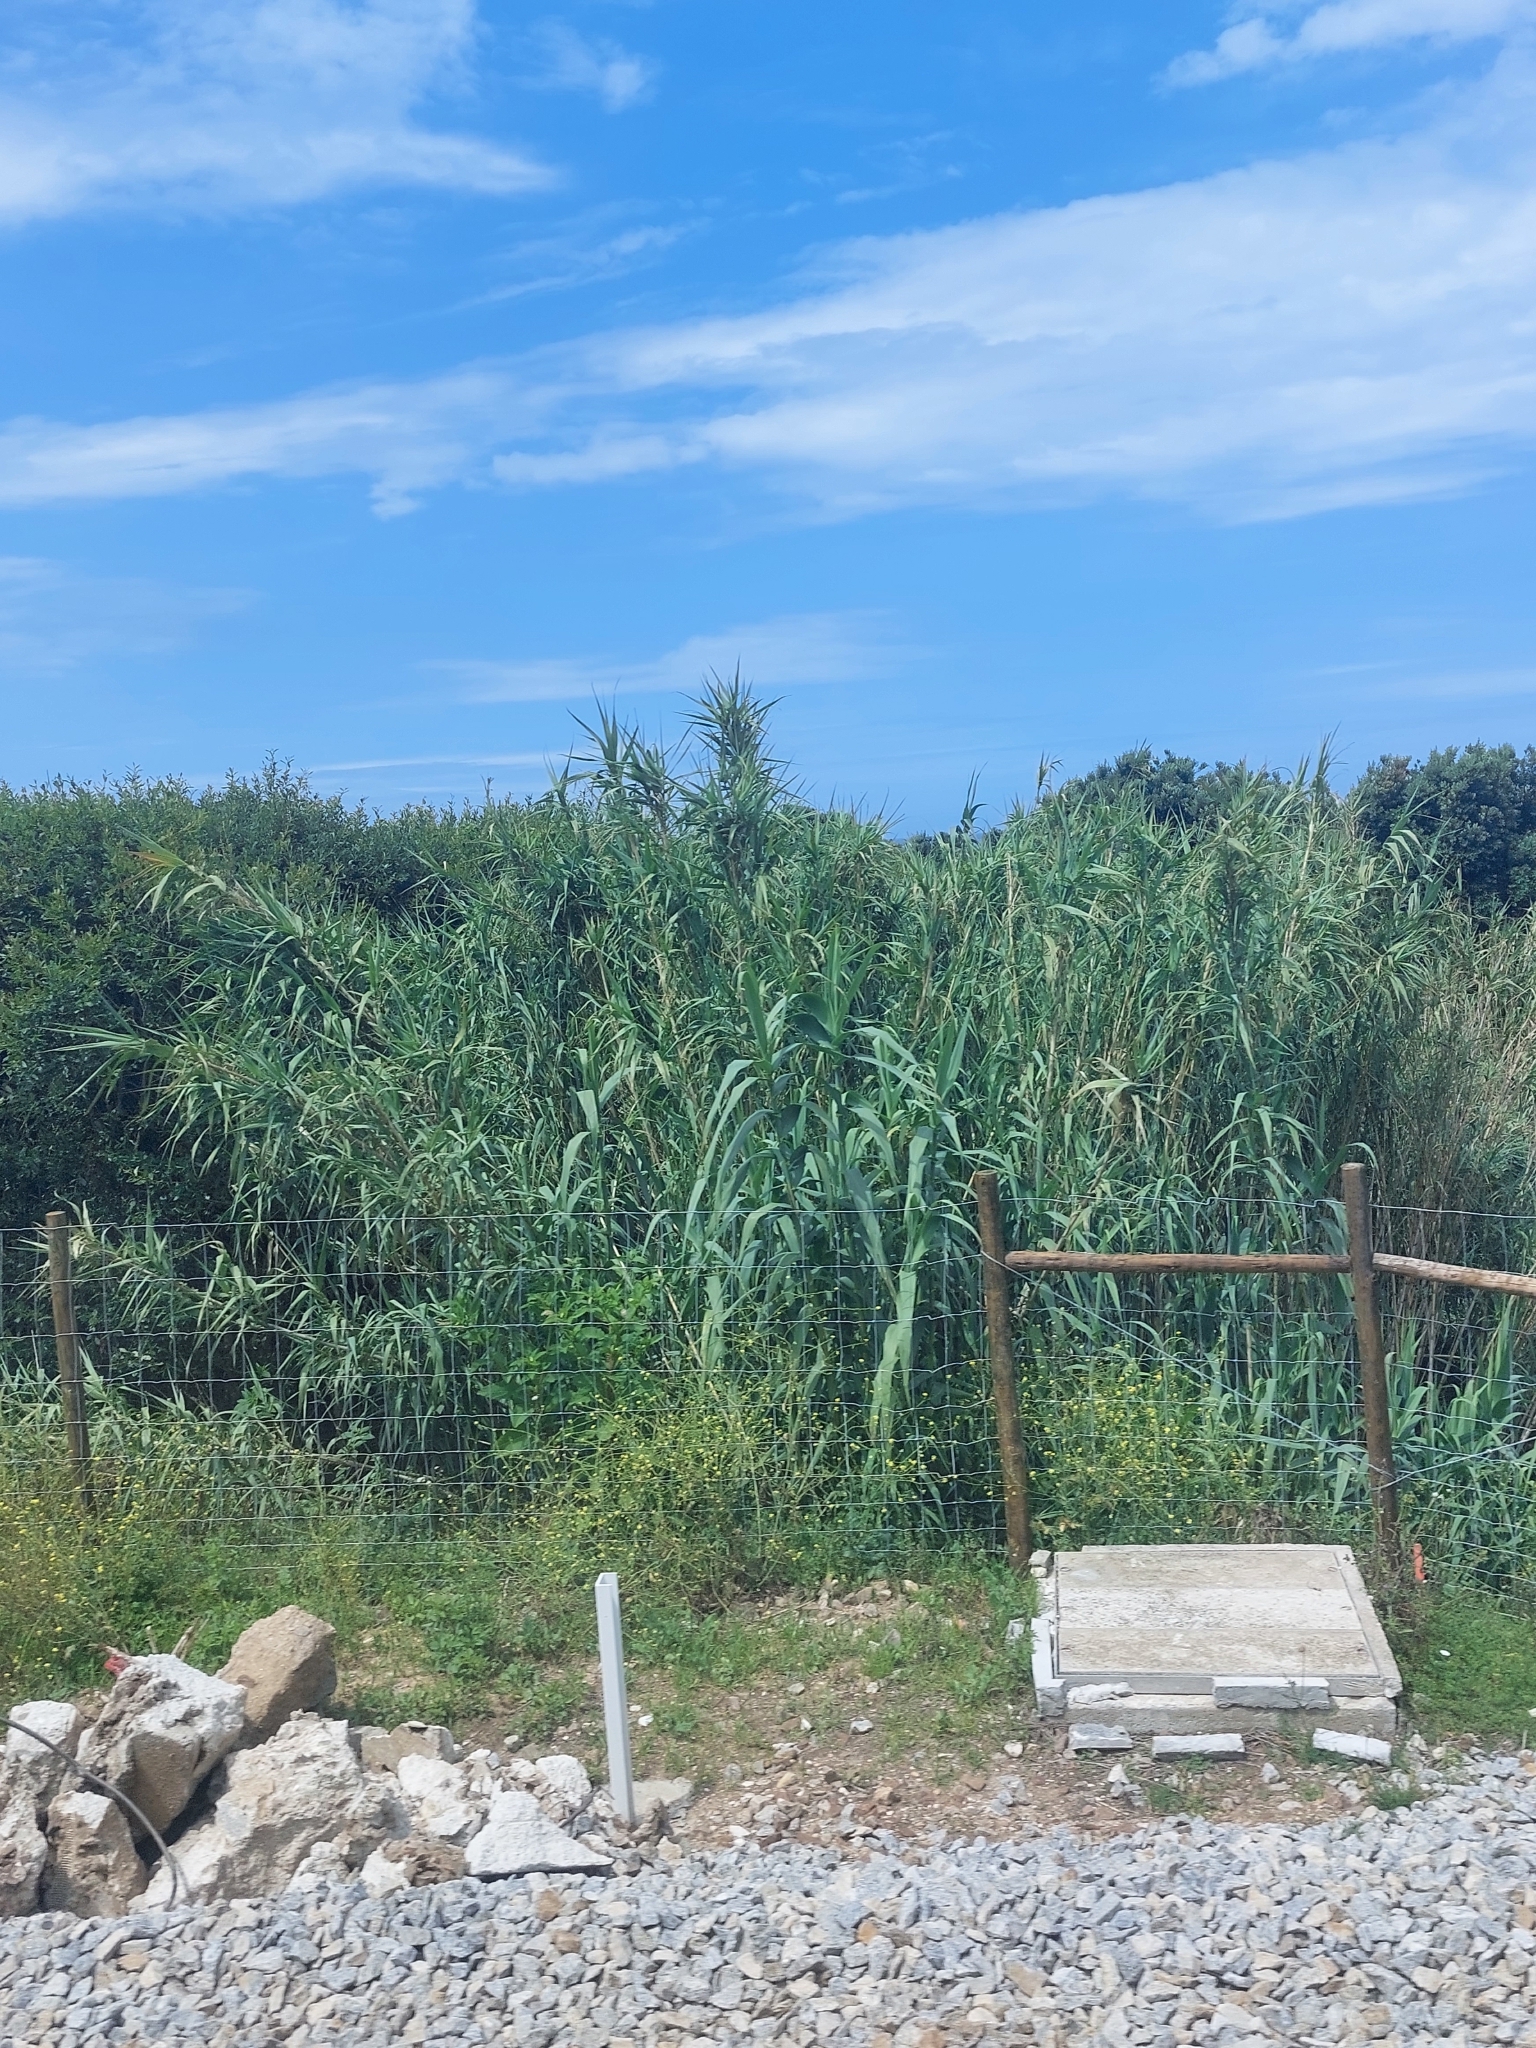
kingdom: Plantae
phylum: Tracheophyta
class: Liliopsida
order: Poales
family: Poaceae
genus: Arundo
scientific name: Arundo donax
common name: Giant reed
